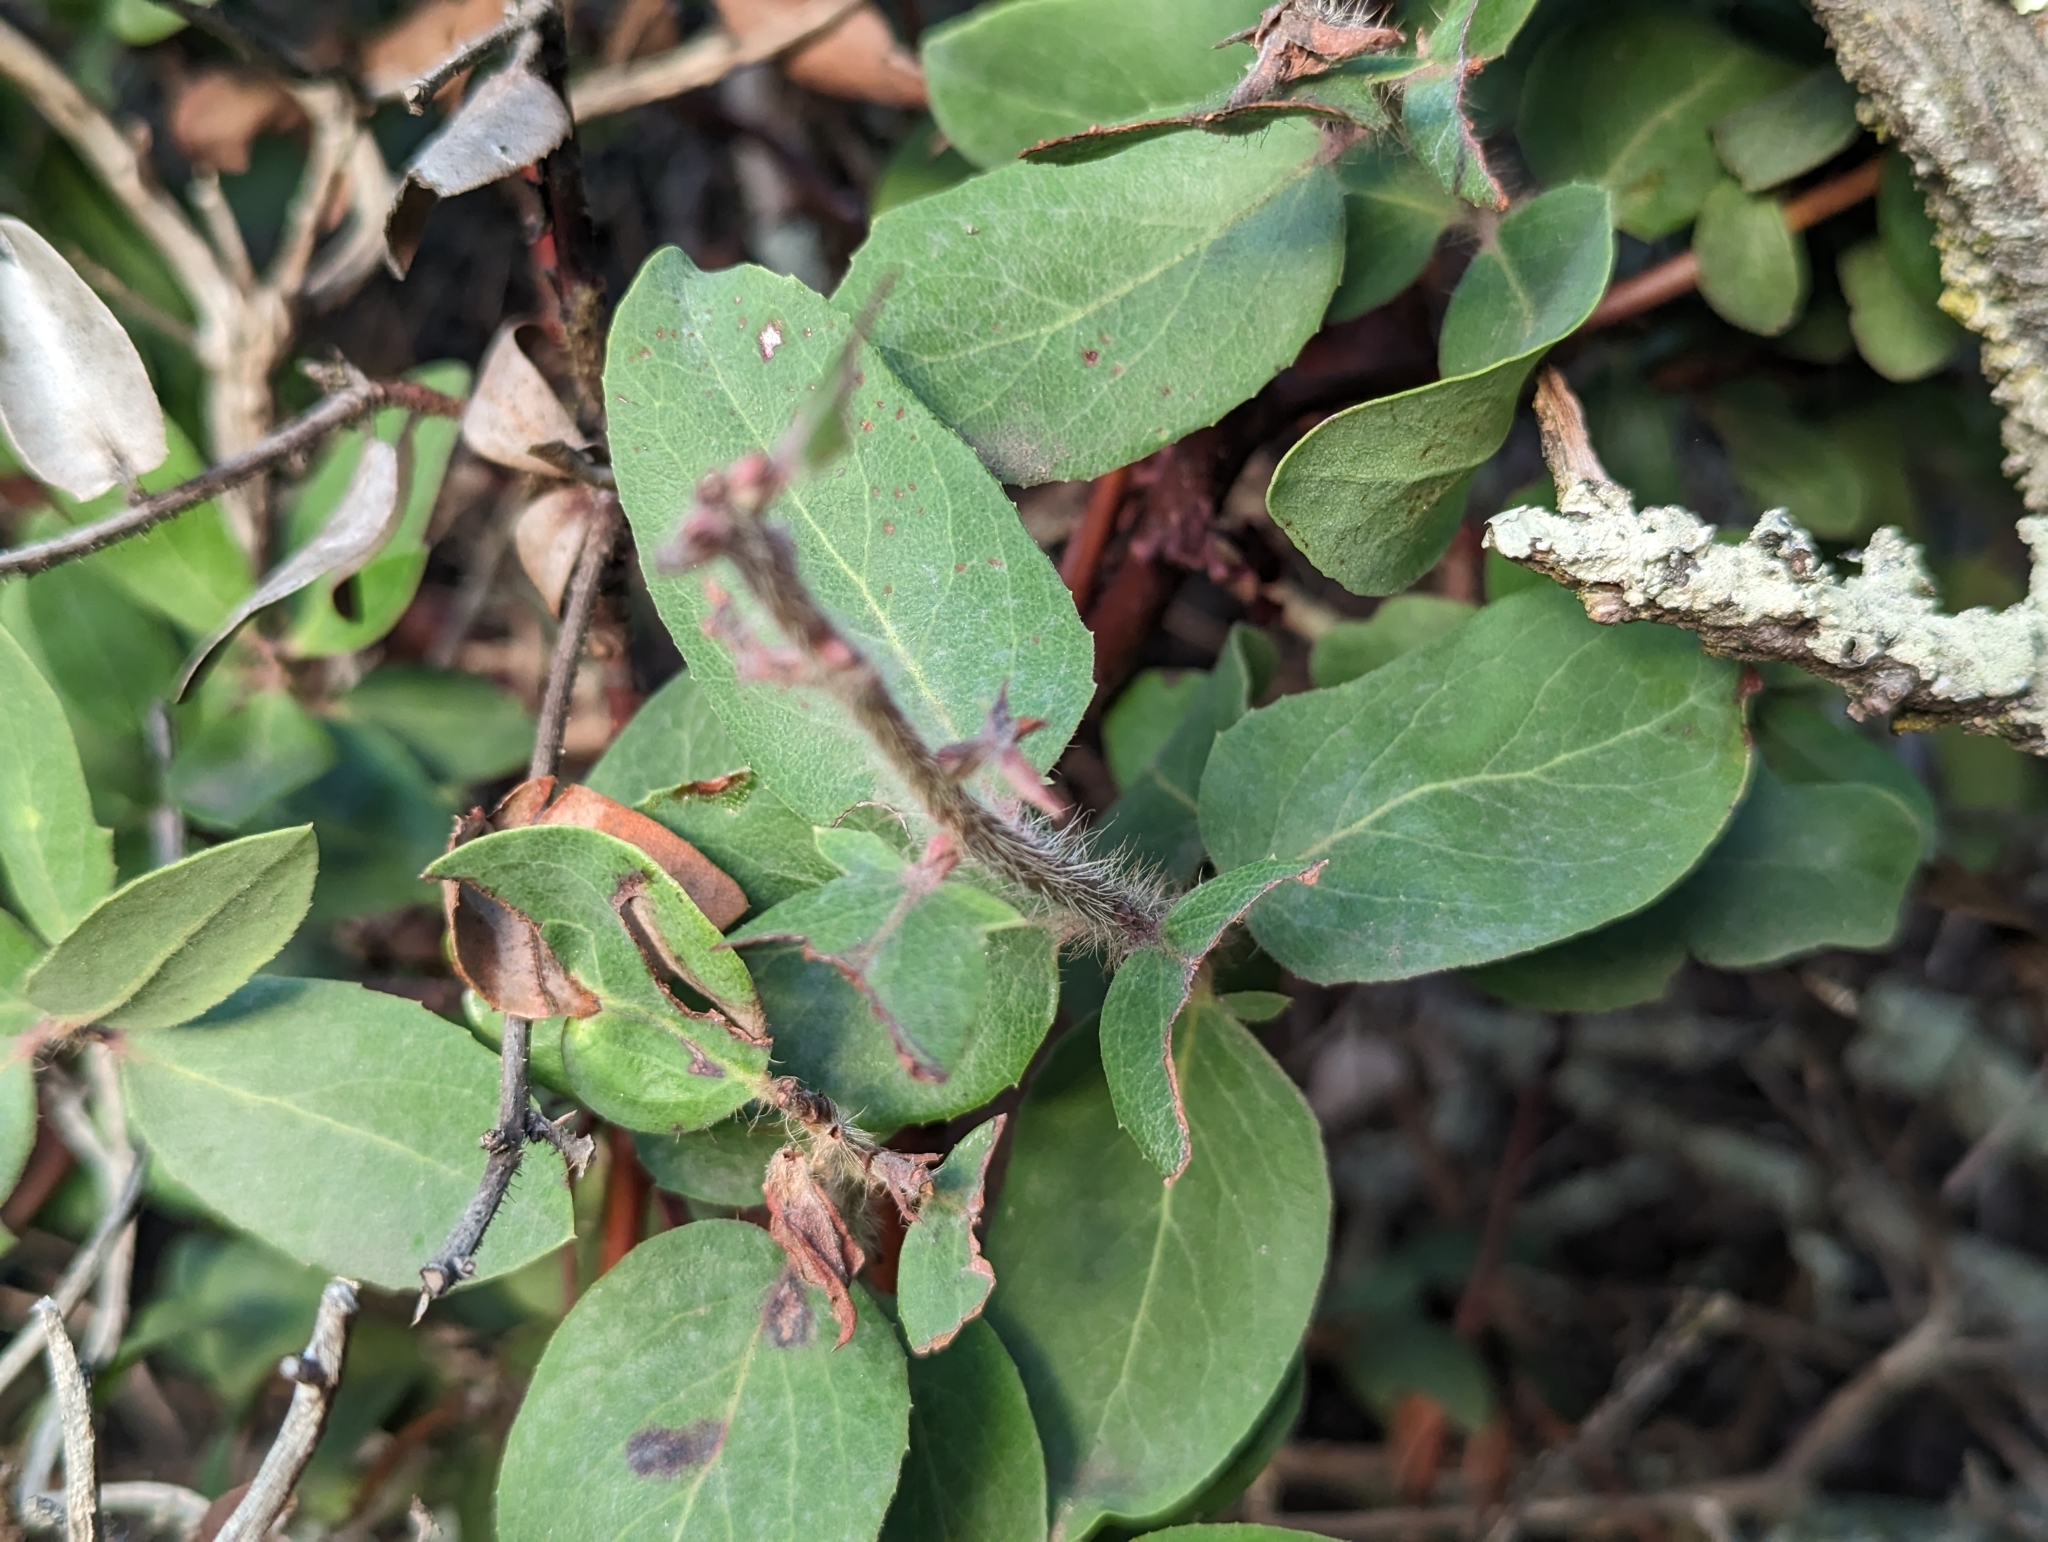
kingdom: Plantae
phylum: Tracheophyta
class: Magnoliopsida
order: Ericales
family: Ericaceae
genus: Arctostaphylos
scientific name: Arctostaphylos crustacea
